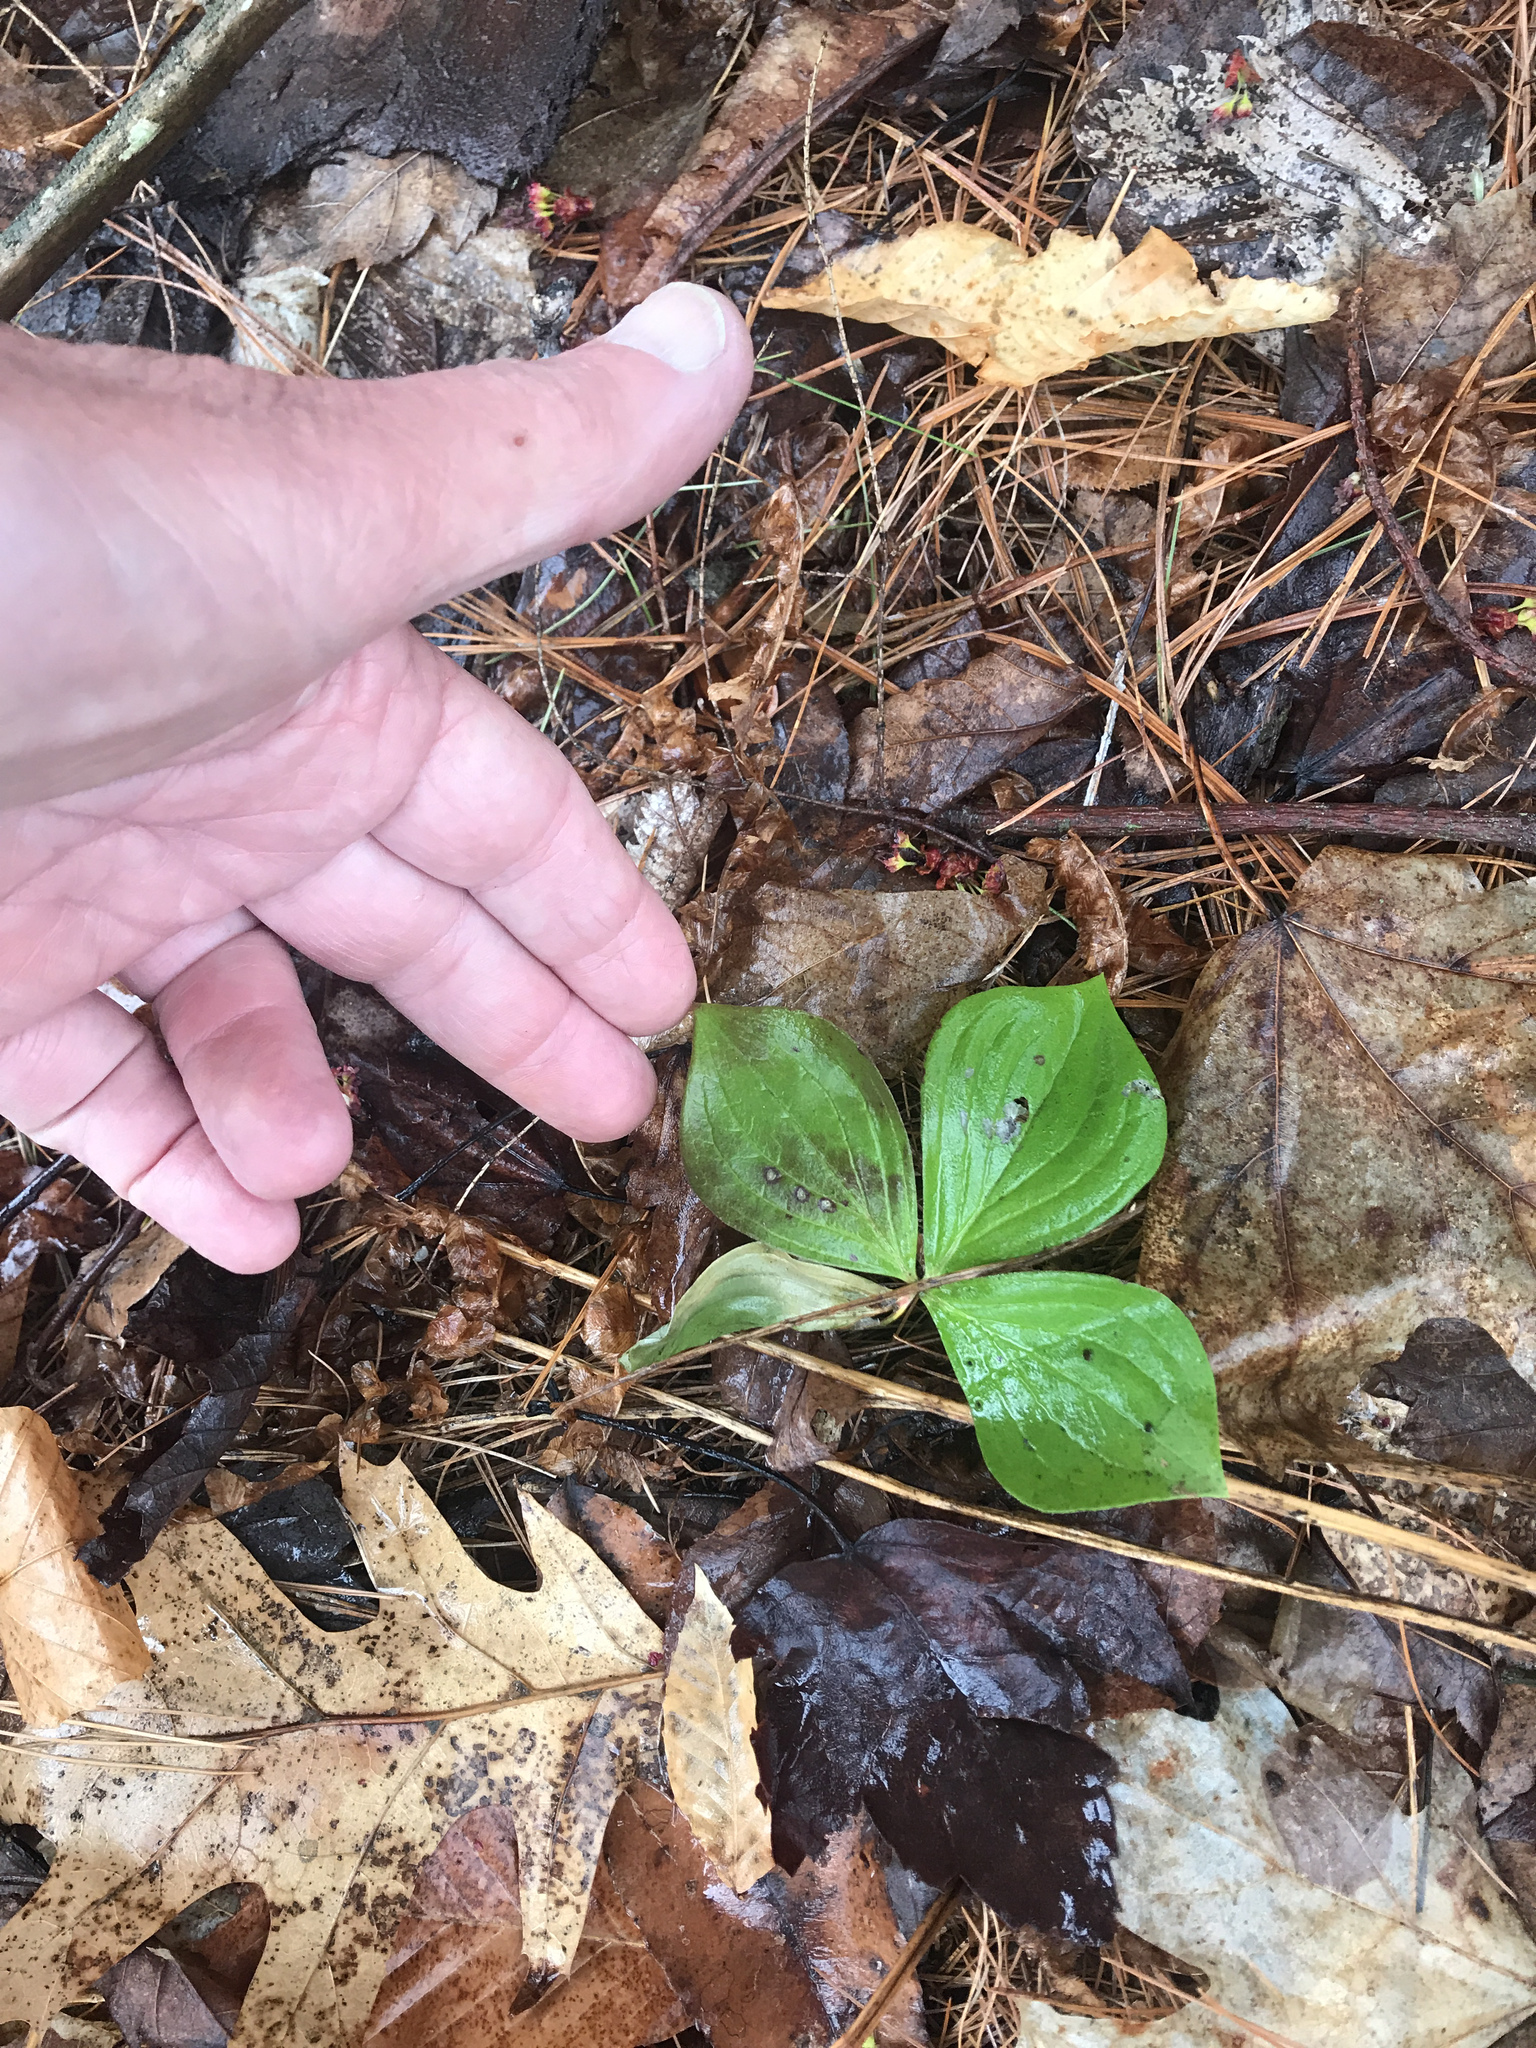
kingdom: Plantae
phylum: Tracheophyta
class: Magnoliopsida
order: Cornales
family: Cornaceae
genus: Cornus
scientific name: Cornus canadensis
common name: Creeping dogwood
